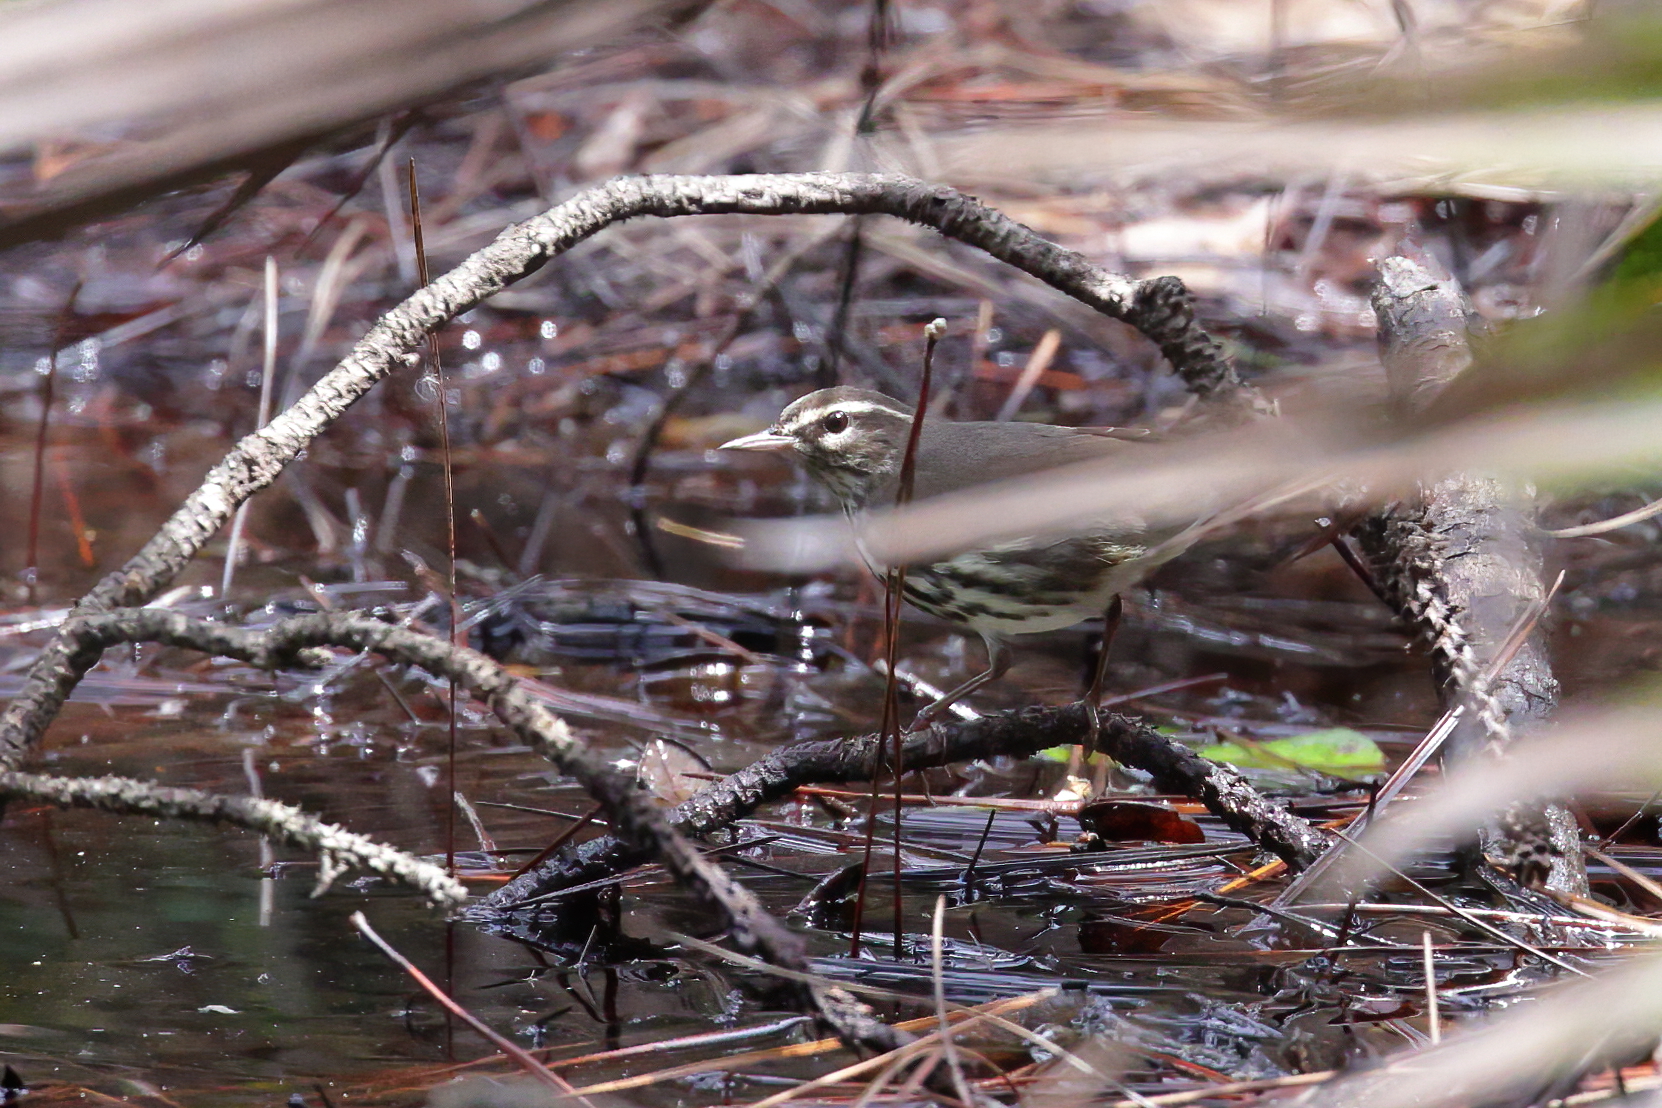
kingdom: Animalia
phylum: Chordata
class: Aves
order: Passeriformes
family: Parulidae
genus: Parkesia
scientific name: Parkesia noveboracensis
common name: Northern waterthrush
